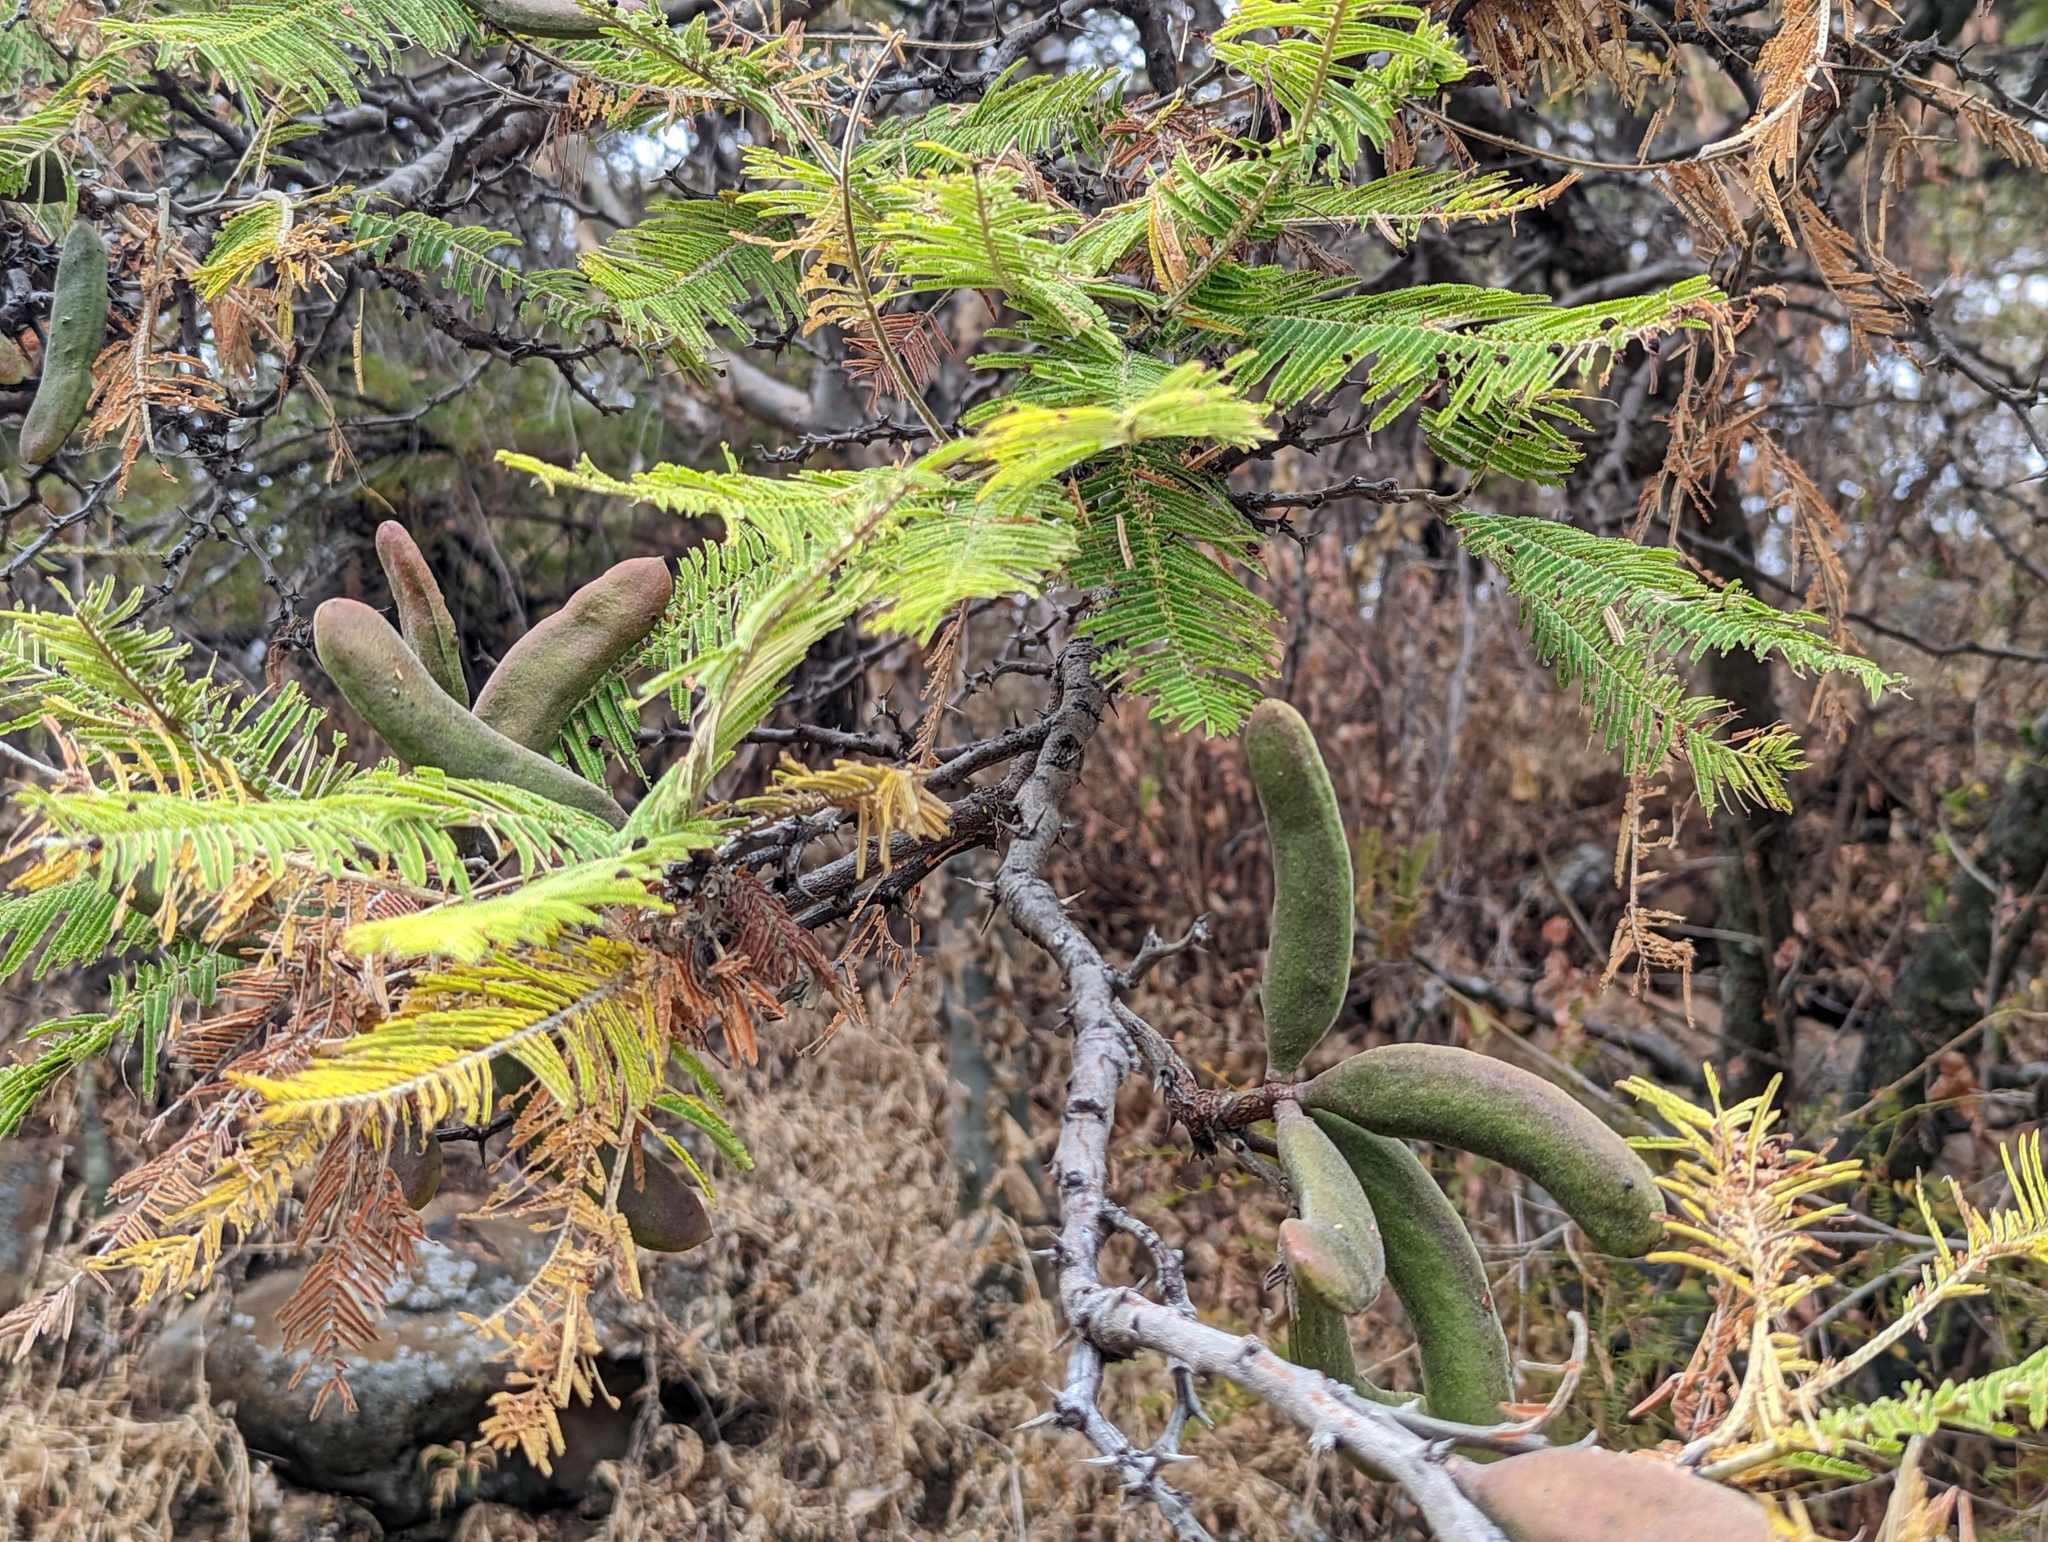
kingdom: Plantae
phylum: Tracheophyta
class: Magnoliopsida
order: Fabales
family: Fabaceae
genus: Vachellia
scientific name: Vachellia pennatula
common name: Fern-leaf acacia
